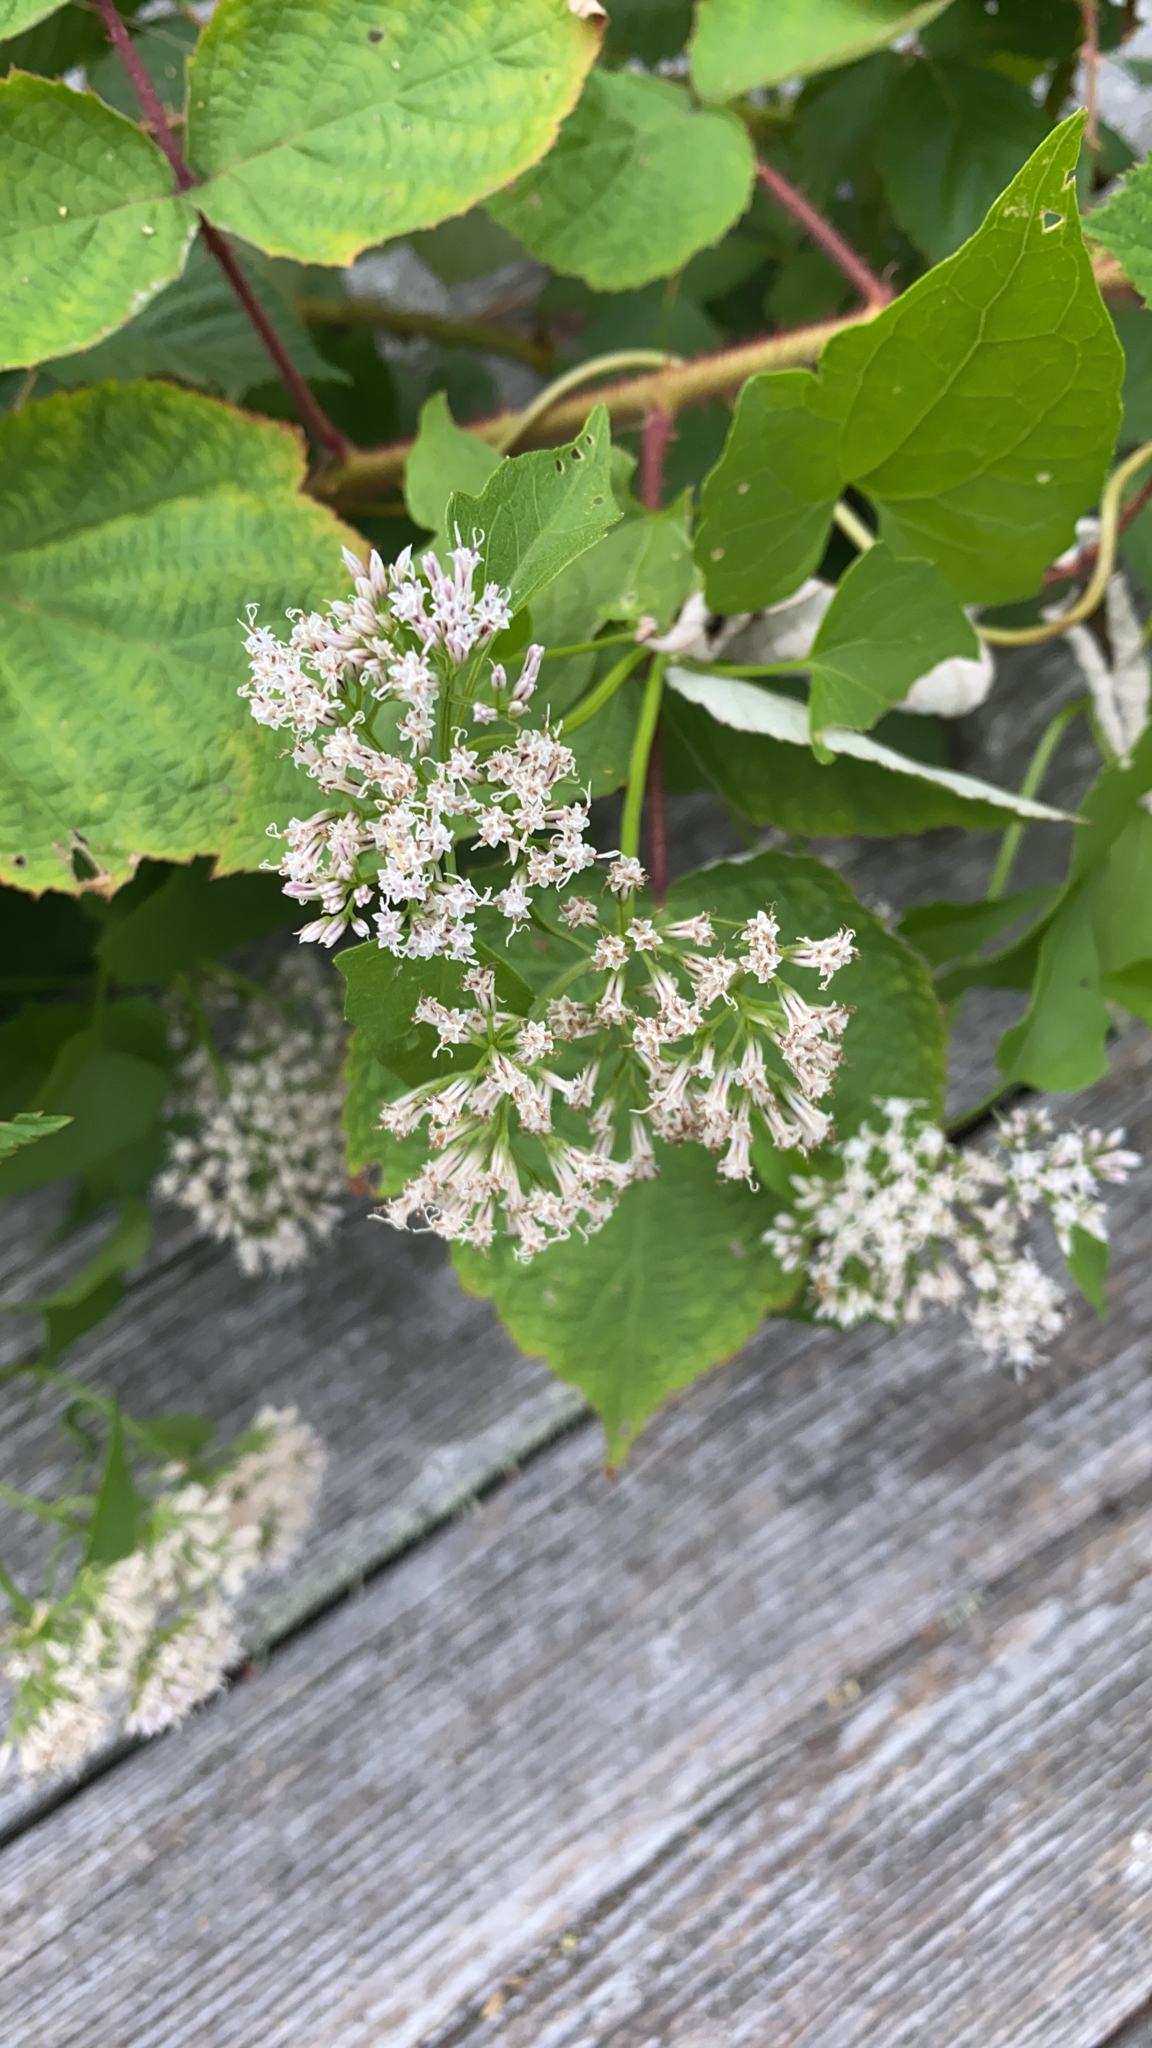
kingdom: Plantae
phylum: Tracheophyta
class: Magnoliopsida
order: Asterales
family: Asteraceae
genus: Mikania
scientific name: Mikania scandens
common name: Climbing hempvine
